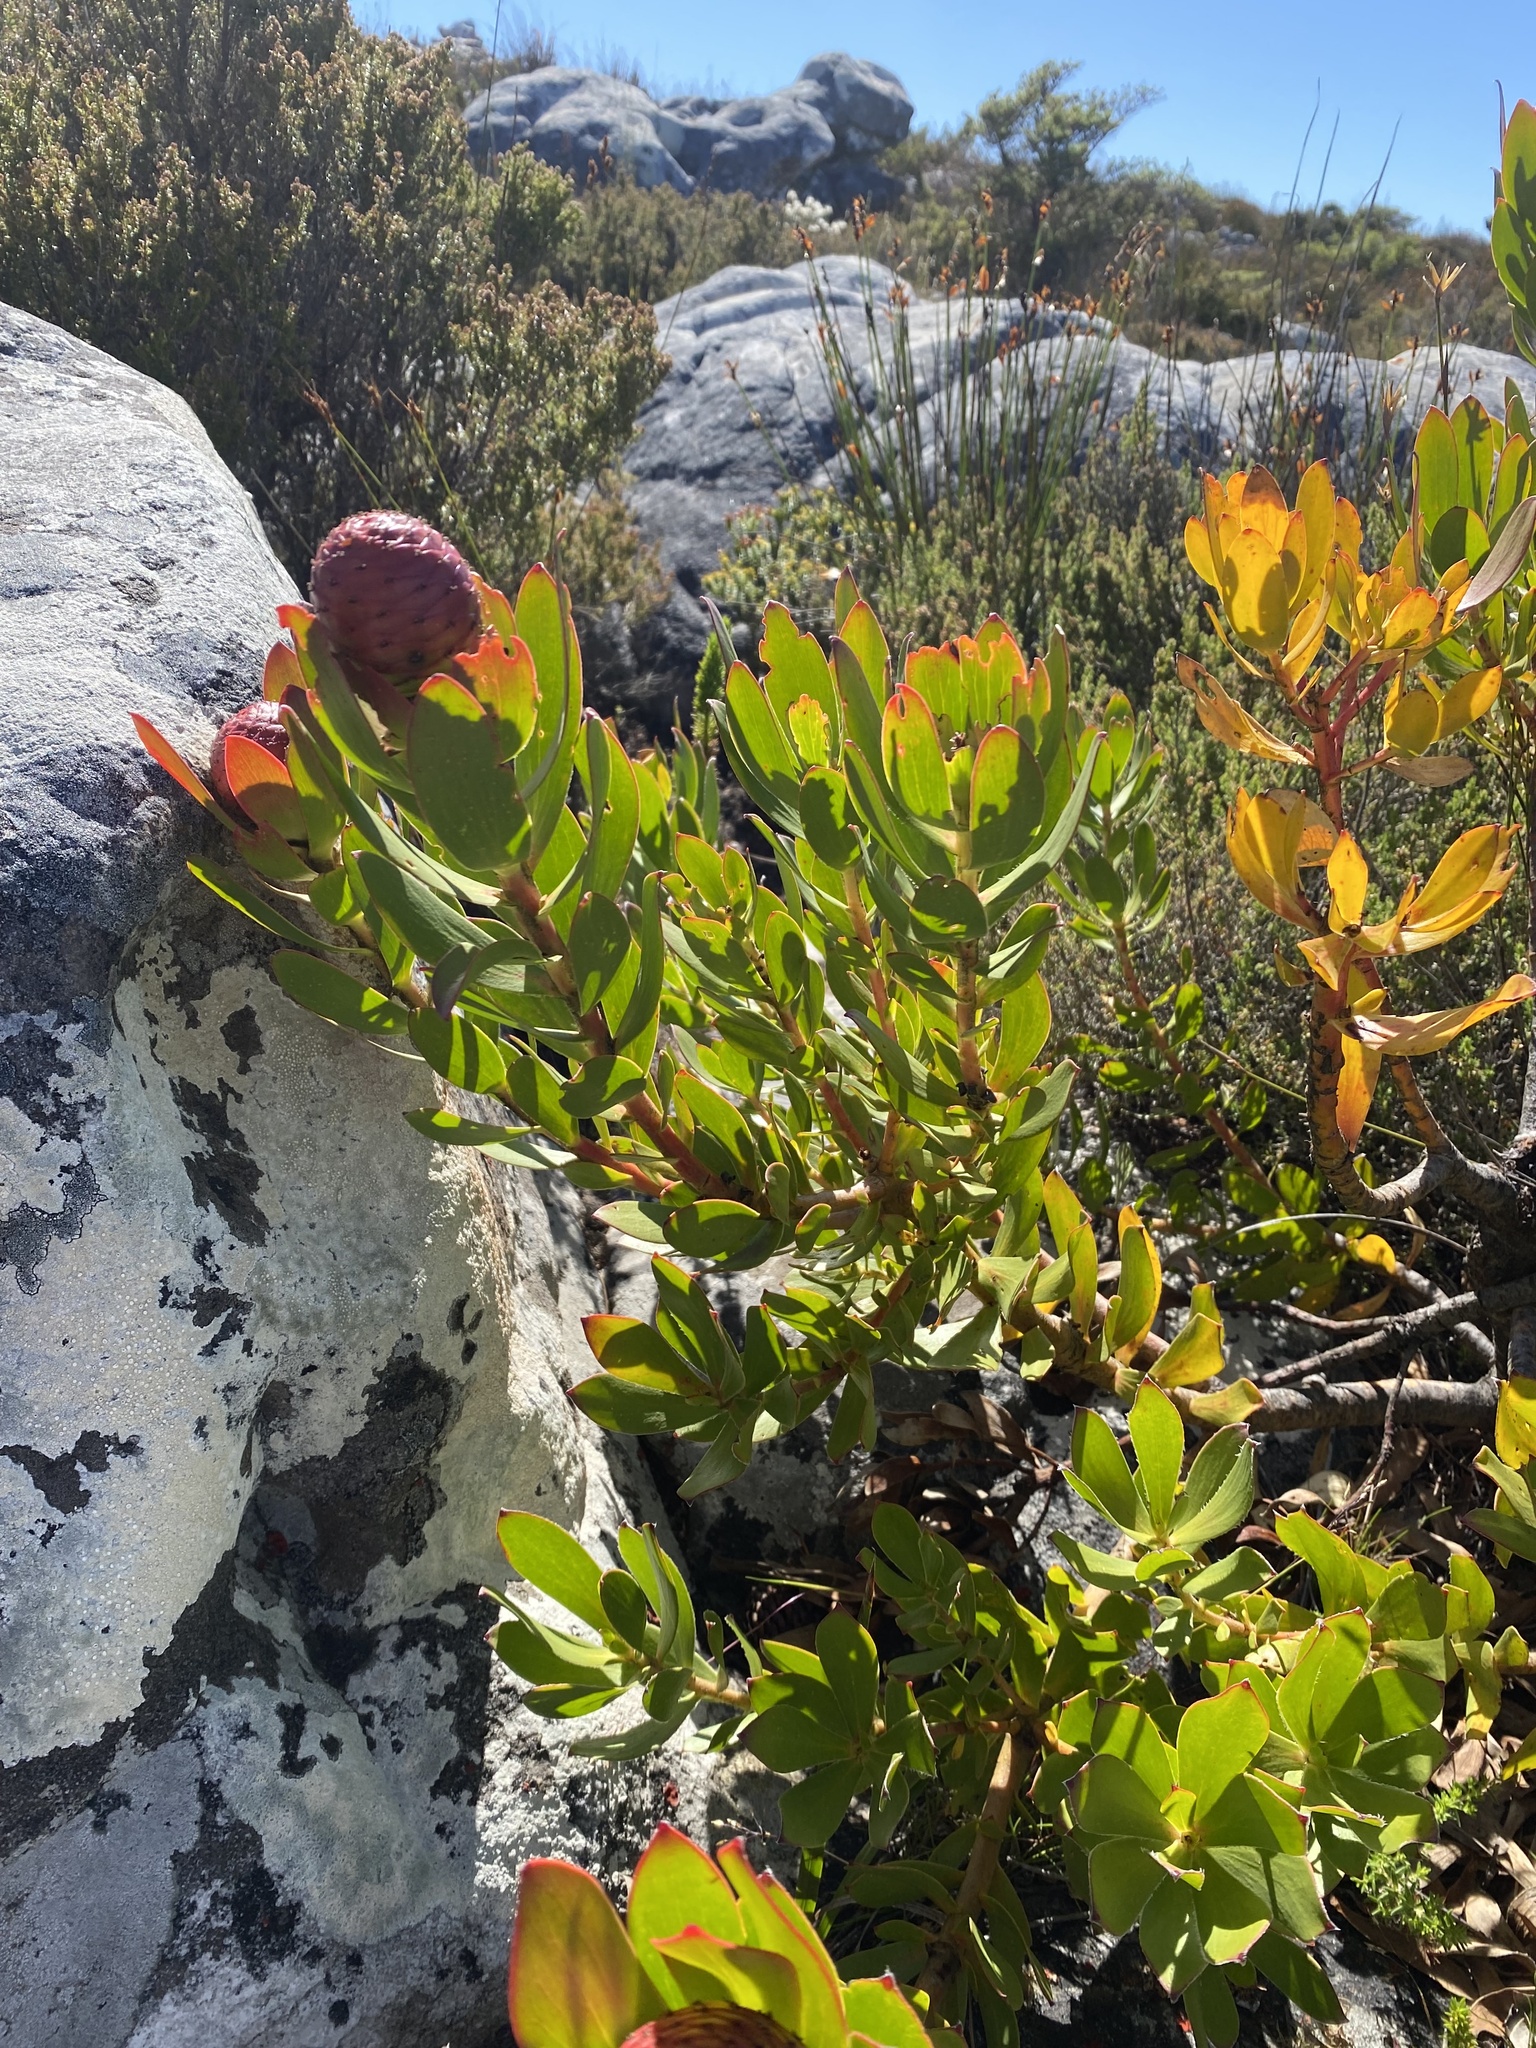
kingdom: Plantae
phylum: Tracheophyta
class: Magnoliopsida
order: Proteales
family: Proteaceae
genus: Leucadendron
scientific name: Leucadendron strobilinum
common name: Mountain rose
